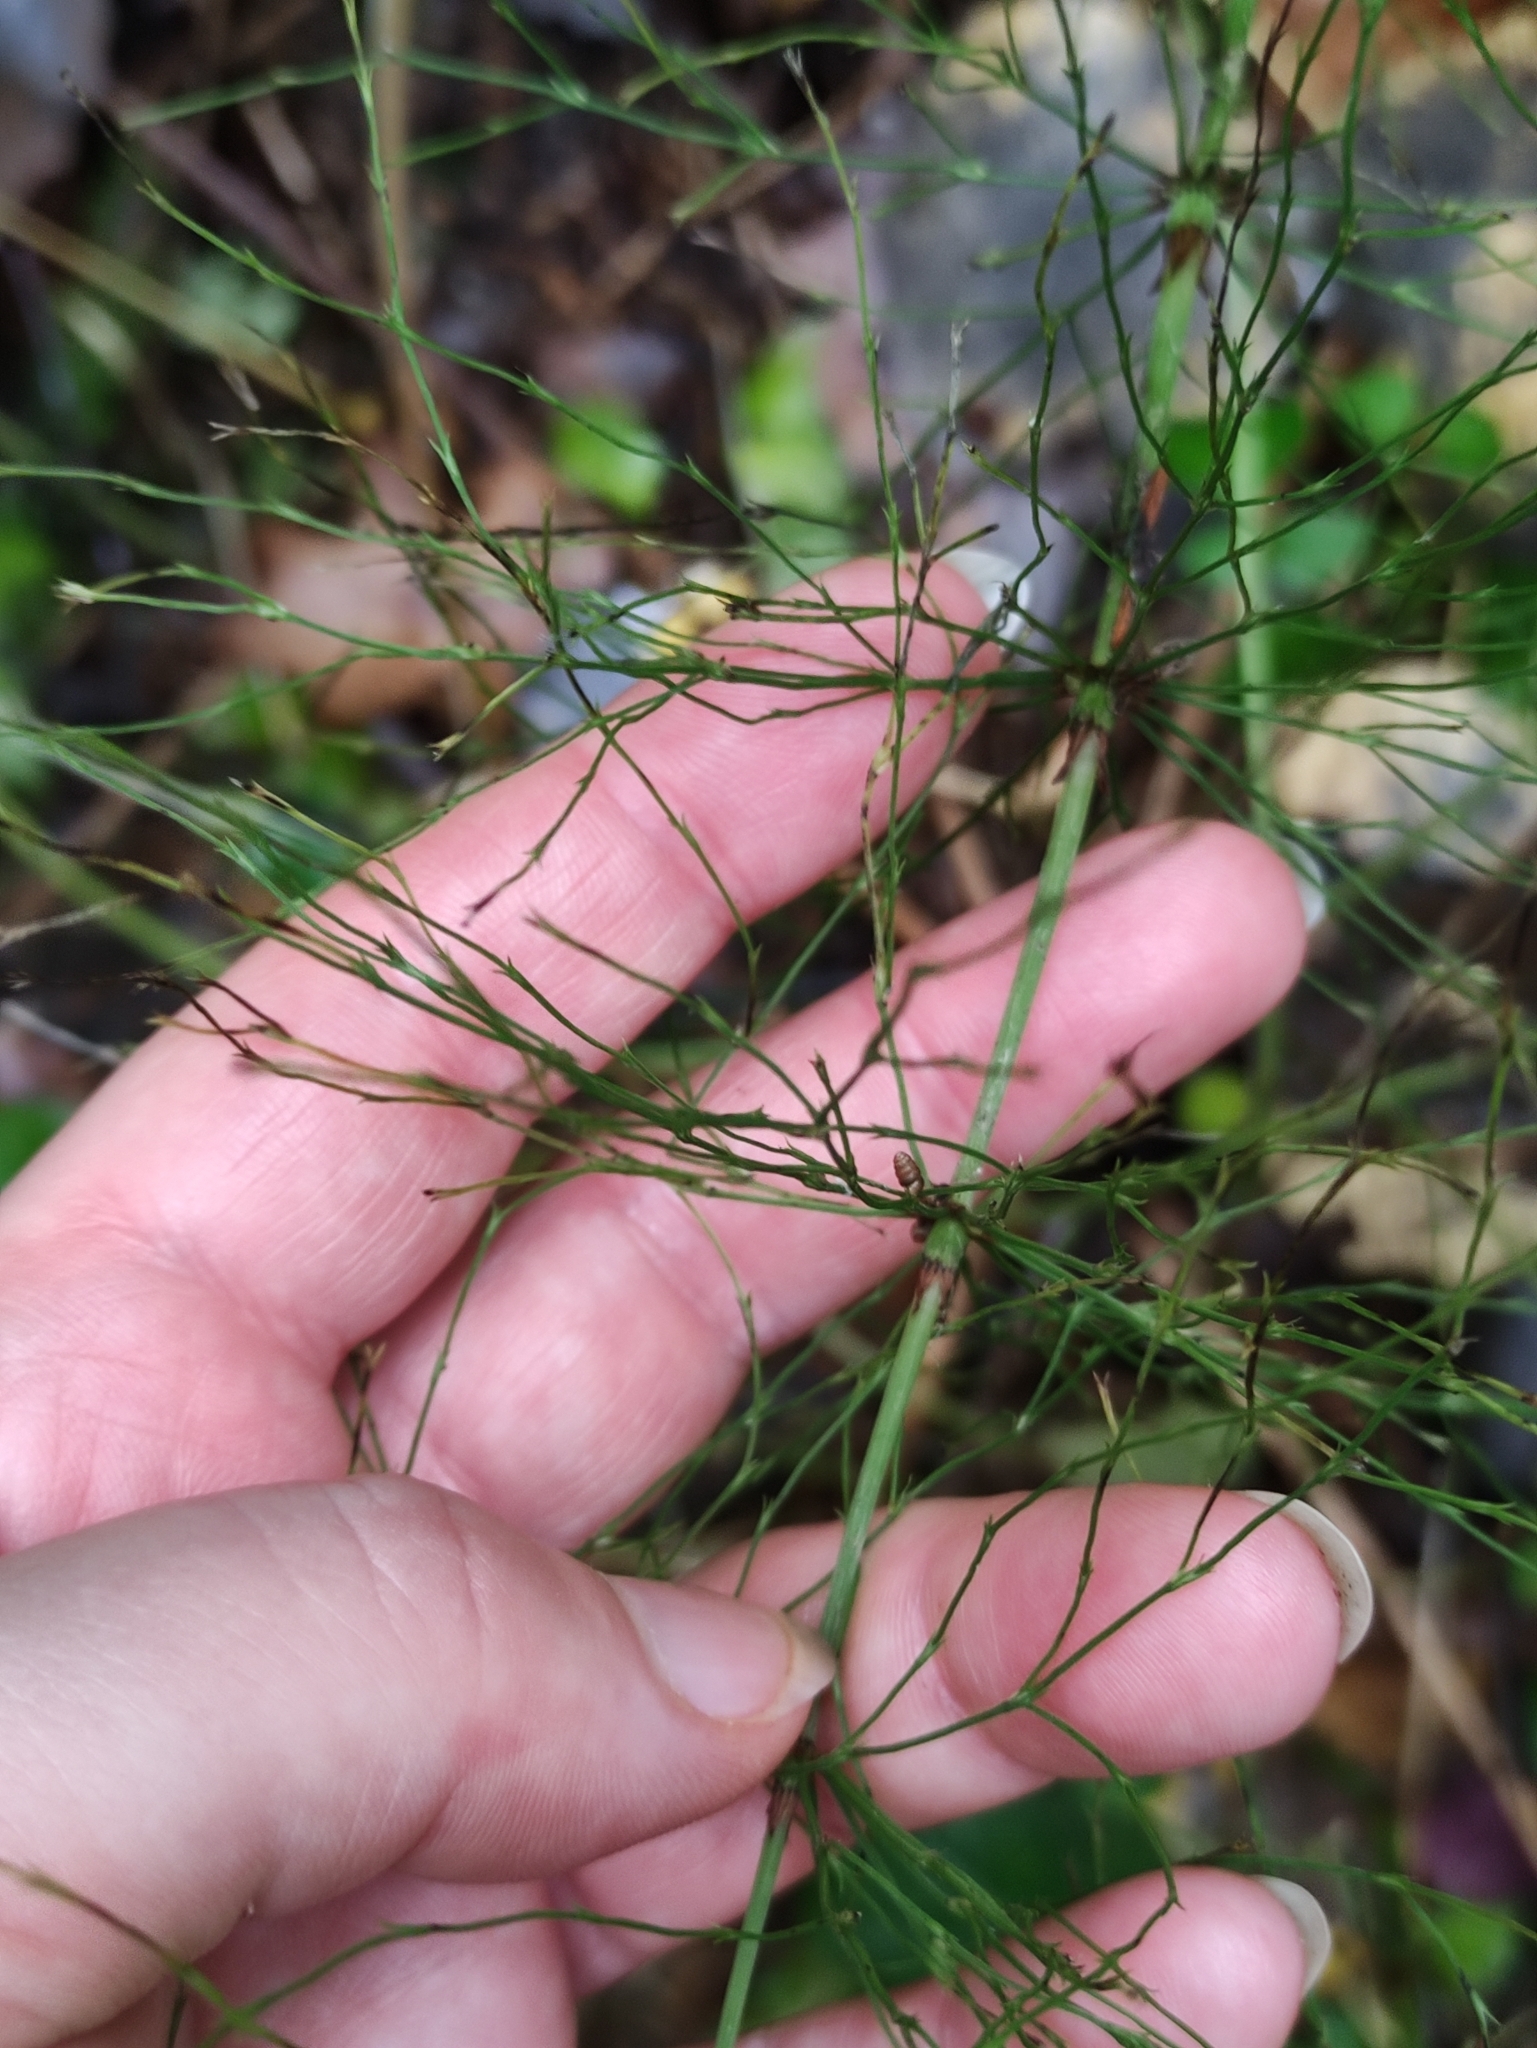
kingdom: Plantae
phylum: Tracheophyta
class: Polypodiopsida
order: Equisetales
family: Equisetaceae
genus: Equisetum
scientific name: Equisetum sylvaticum
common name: Wood horsetail
